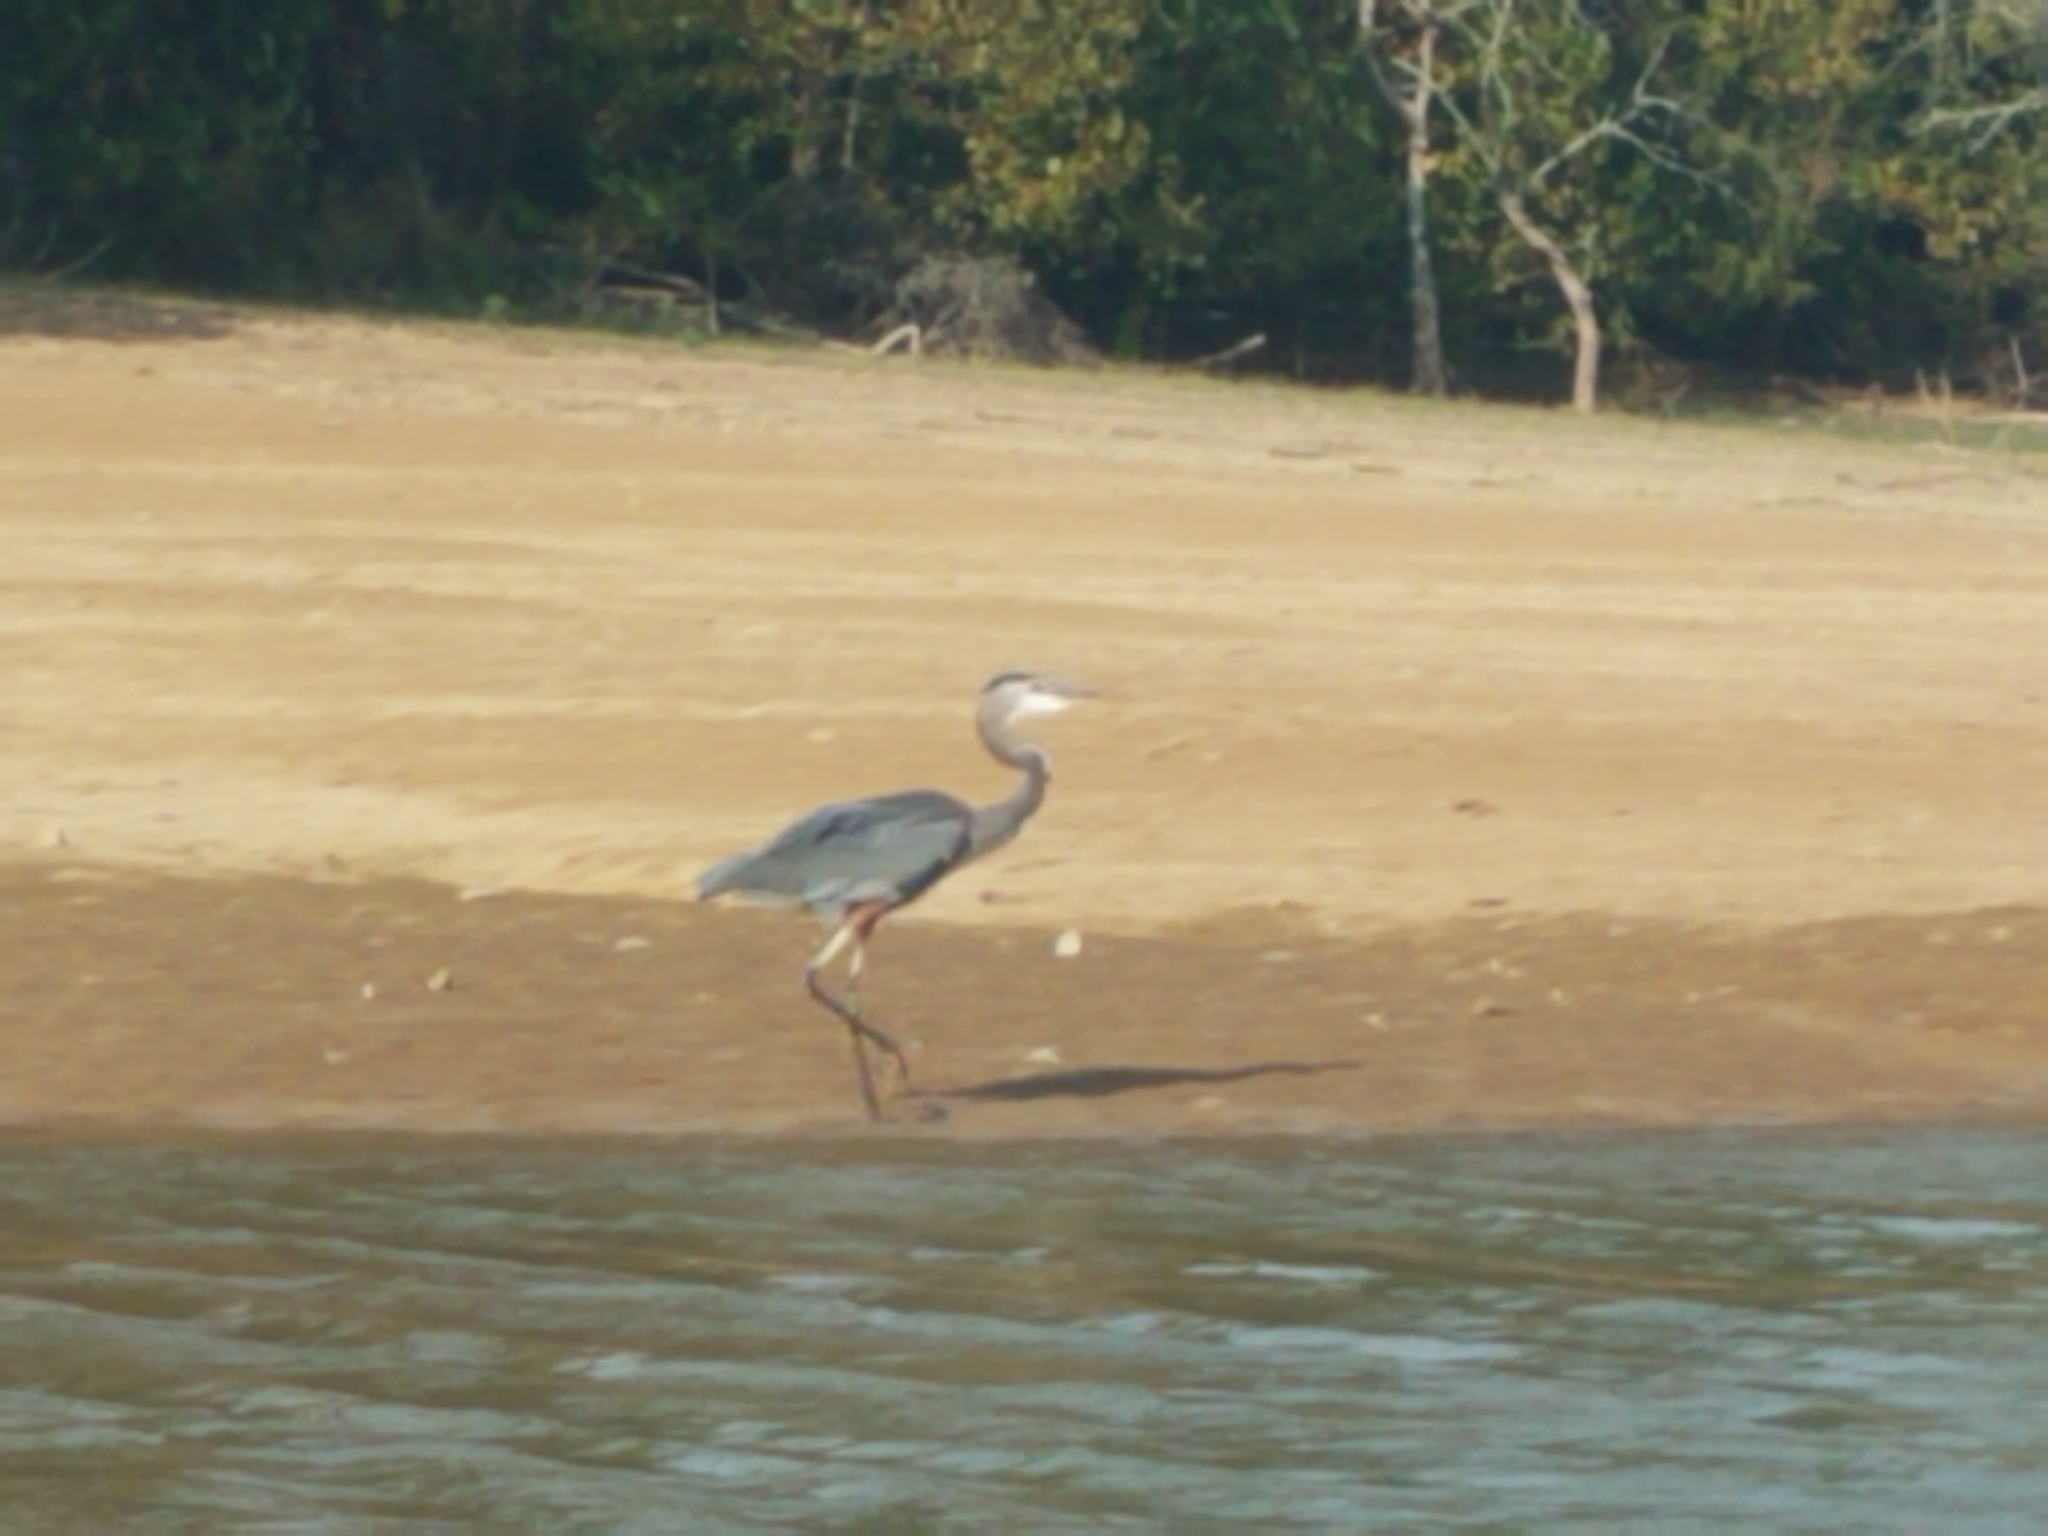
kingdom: Animalia
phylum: Chordata
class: Aves
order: Pelecaniformes
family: Ardeidae
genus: Ardea
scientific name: Ardea herodias
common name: Great blue heron
